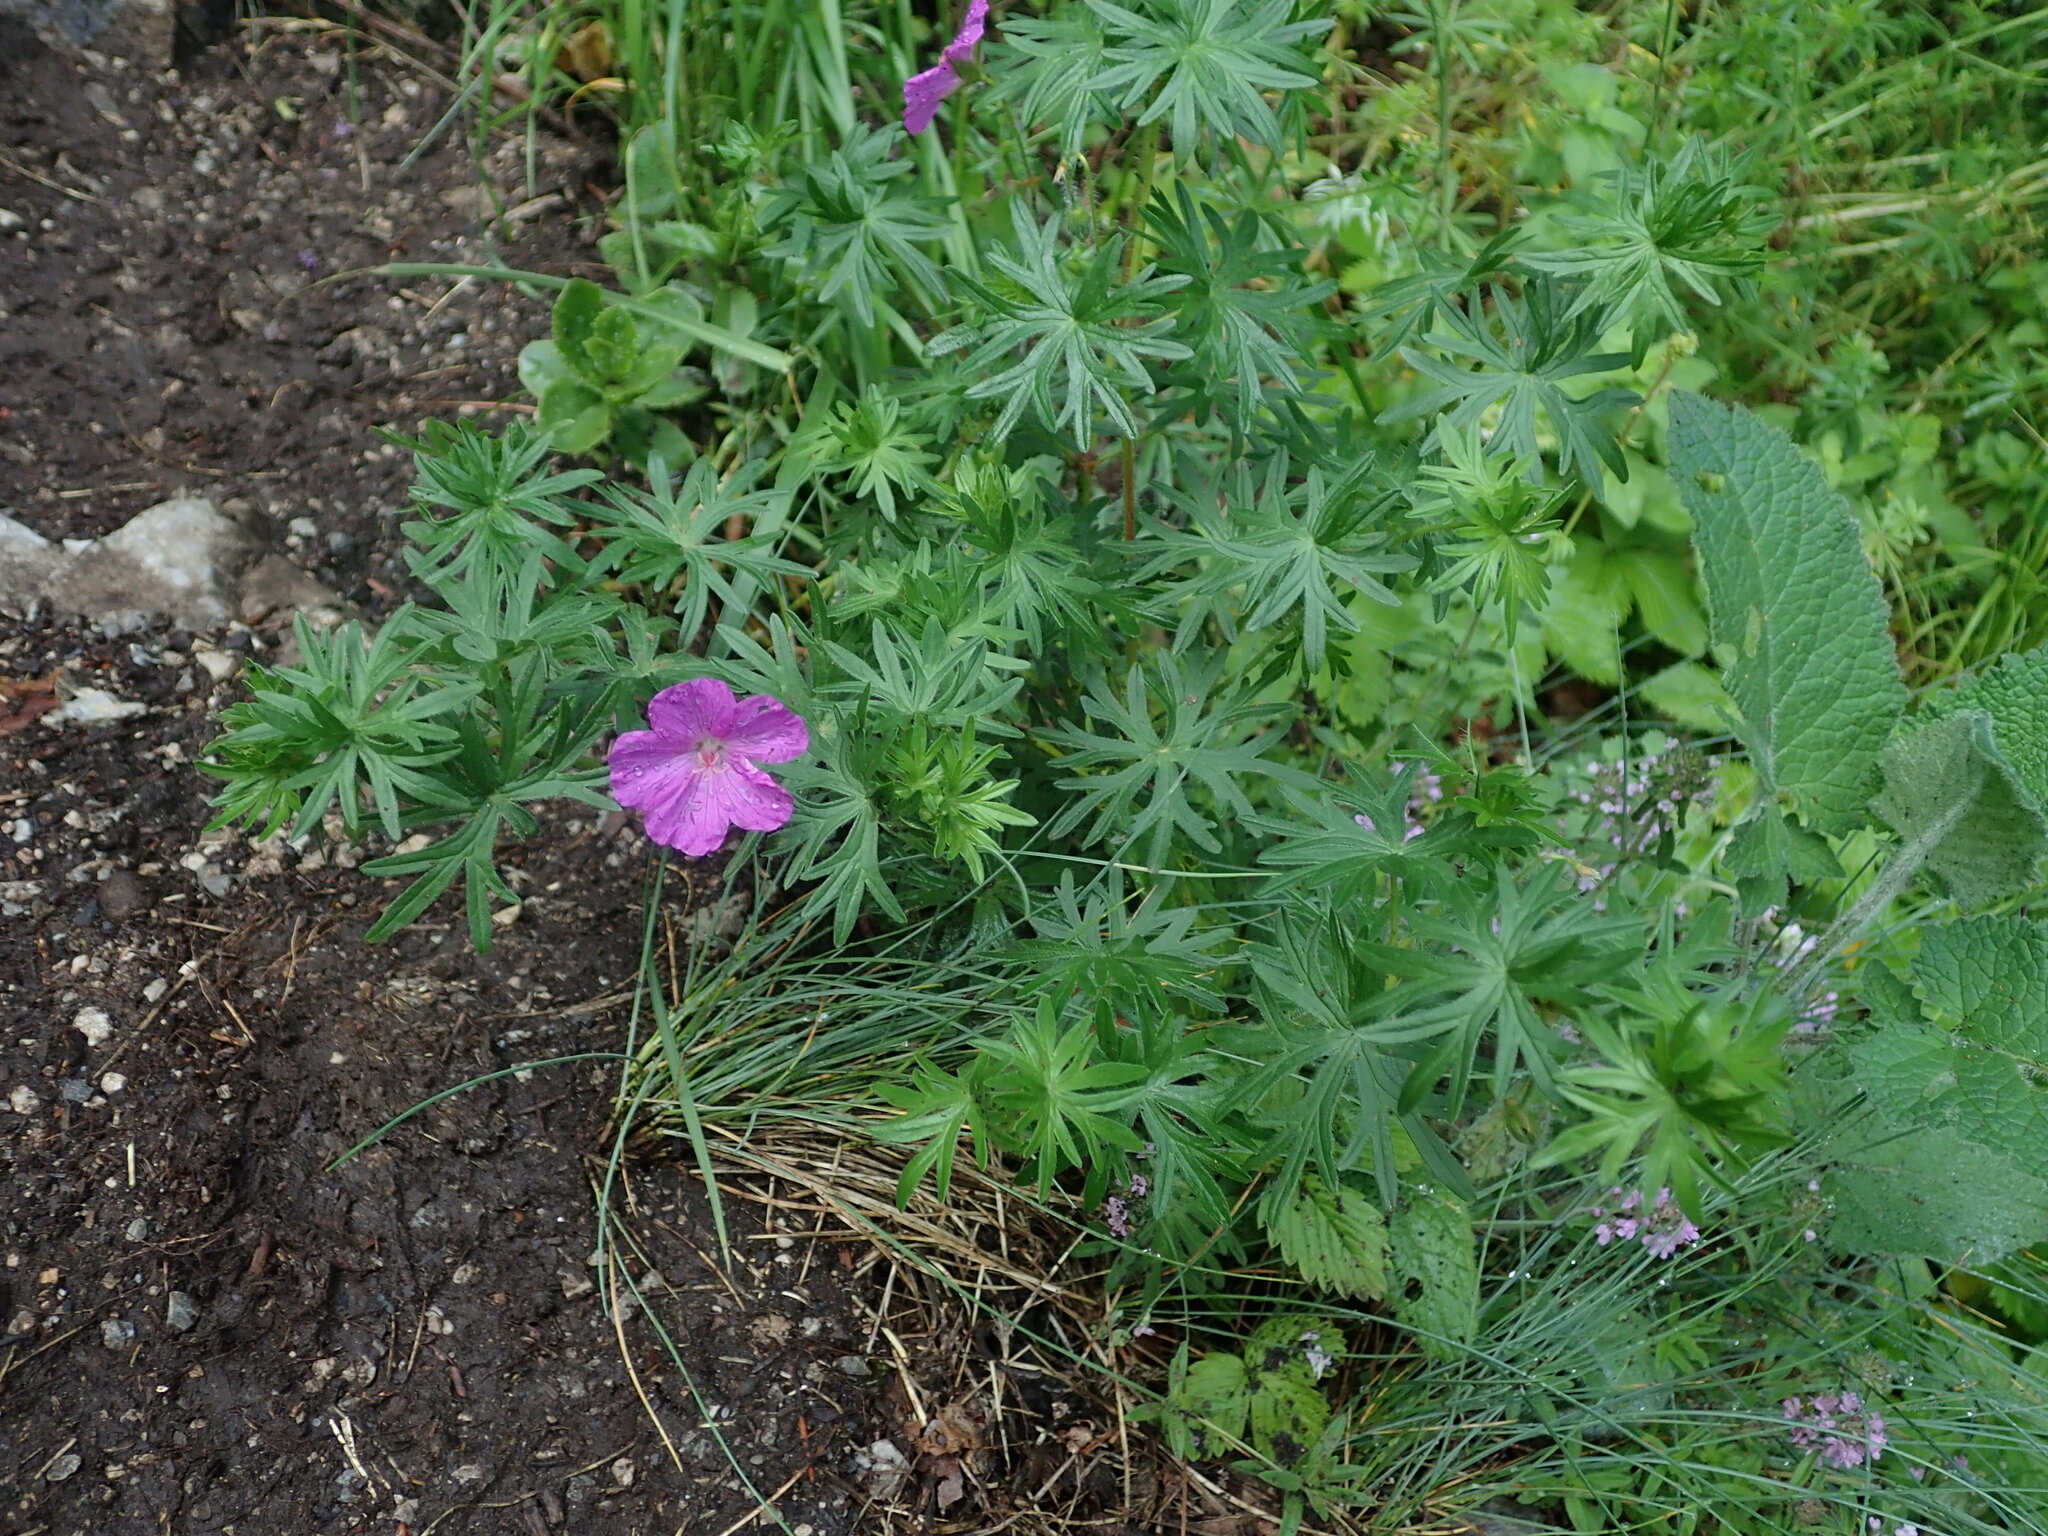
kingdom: Plantae
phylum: Tracheophyta
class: Magnoliopsida
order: Geraniales
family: Geraniaceae
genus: Geranium
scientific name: Geranium sanguineum
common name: Bloody crane's-bill
